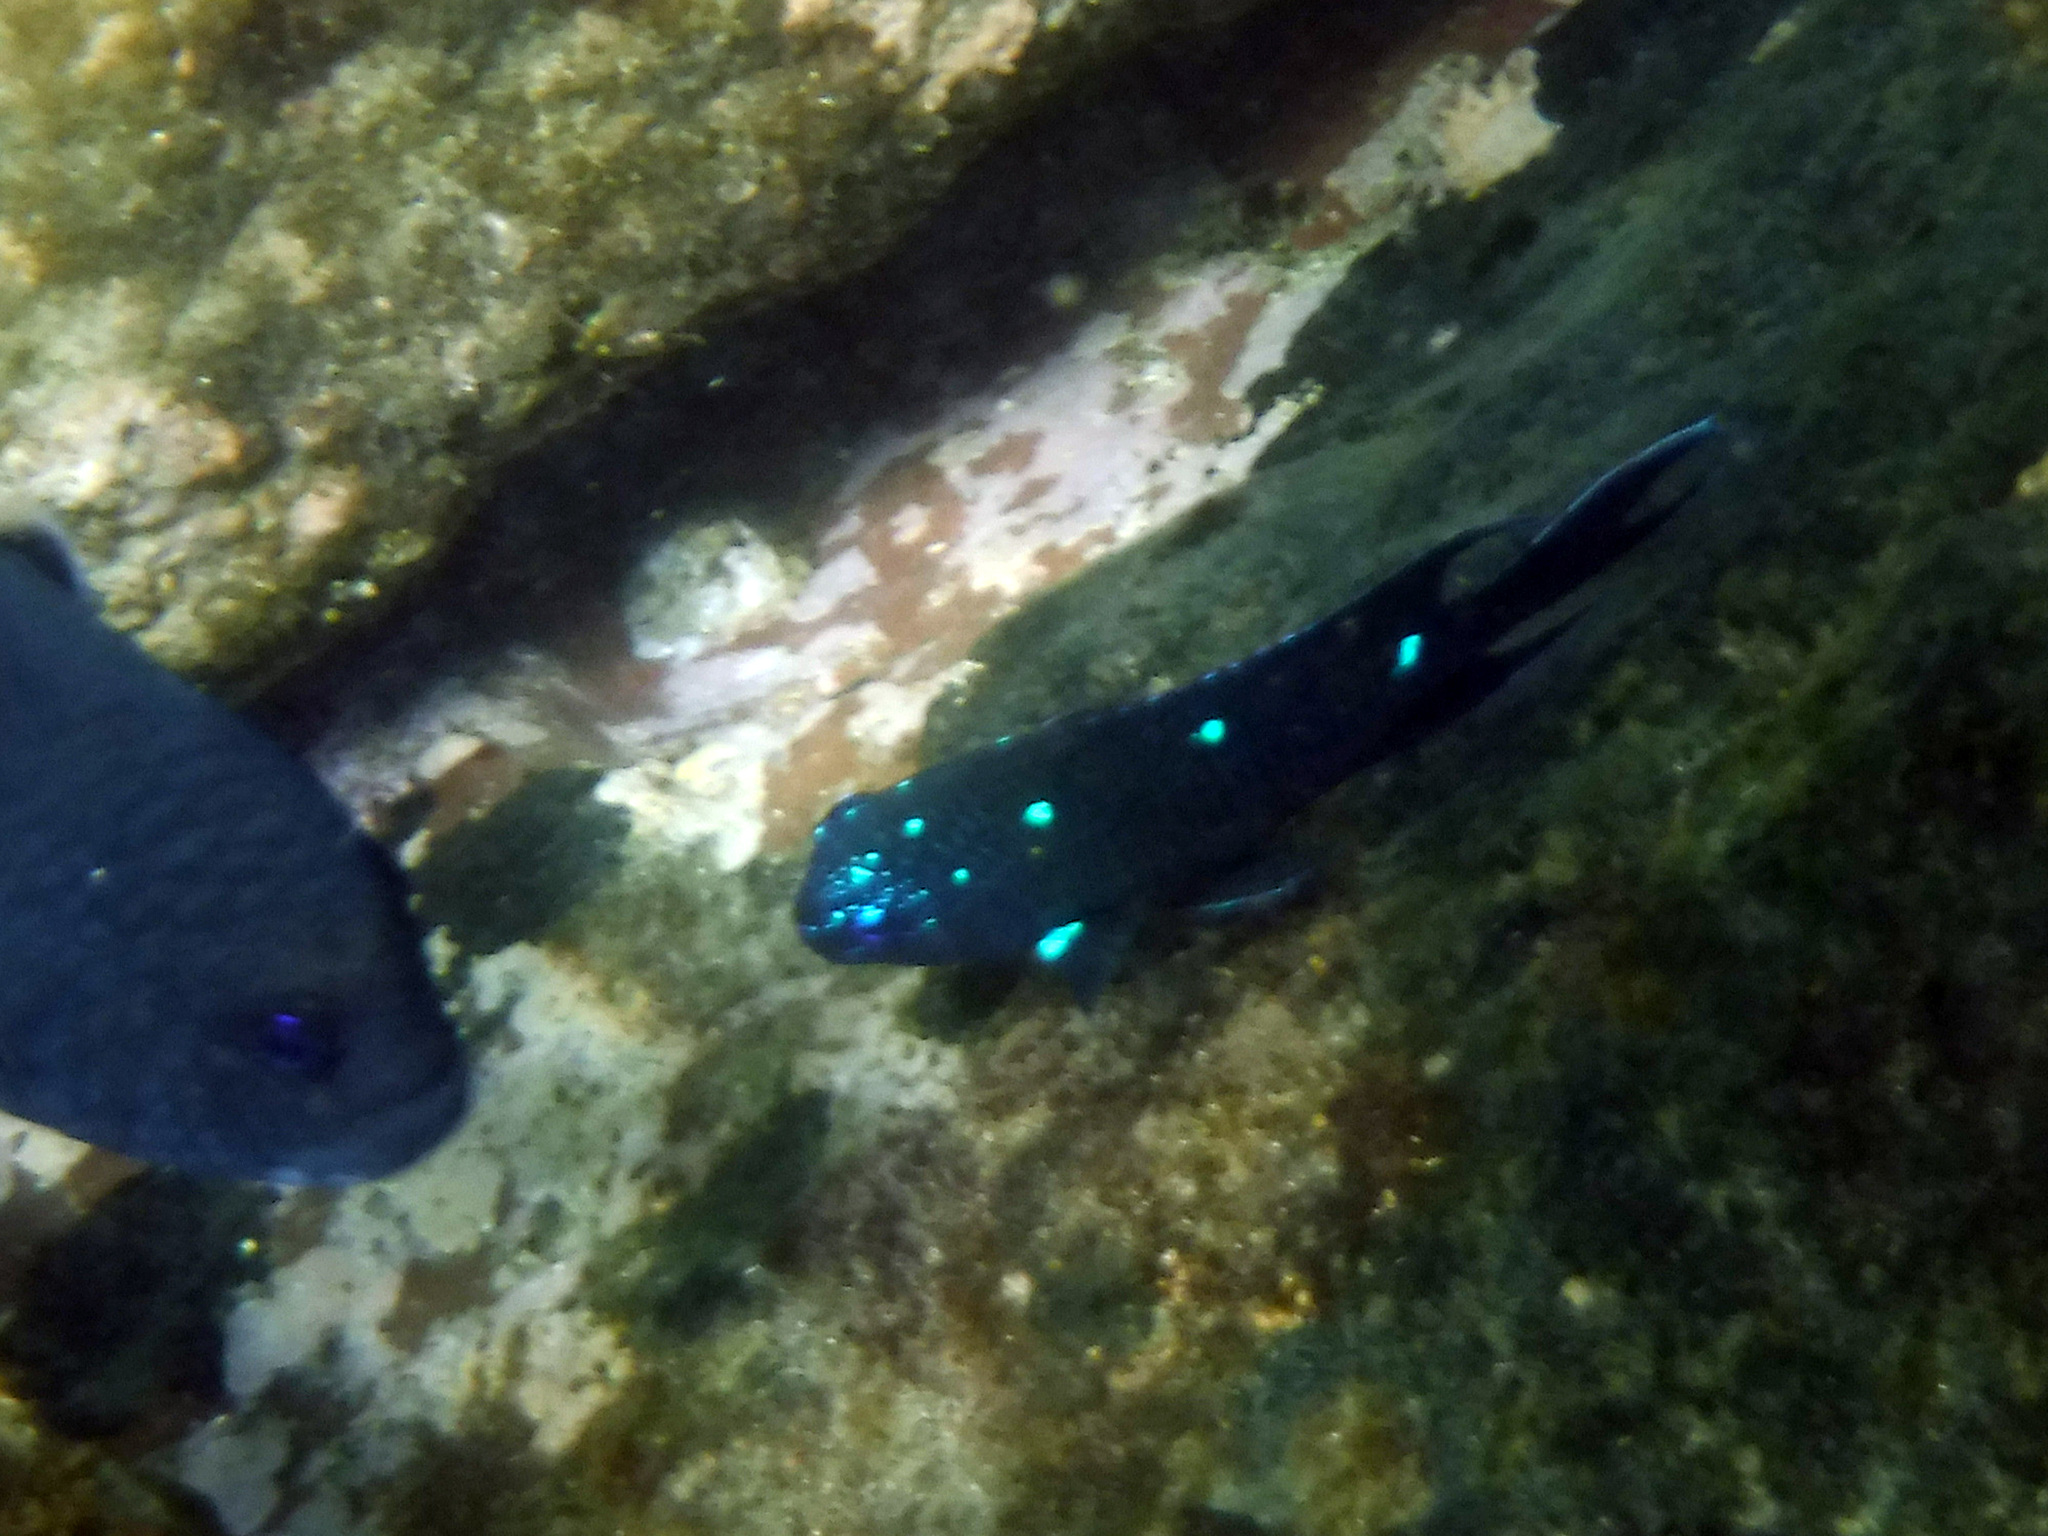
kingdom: Animalia
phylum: Chordata
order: Perciformes
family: Pomacentridae
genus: Microspathodon
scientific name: Microspathodon dorsalis
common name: Giant damselfish
